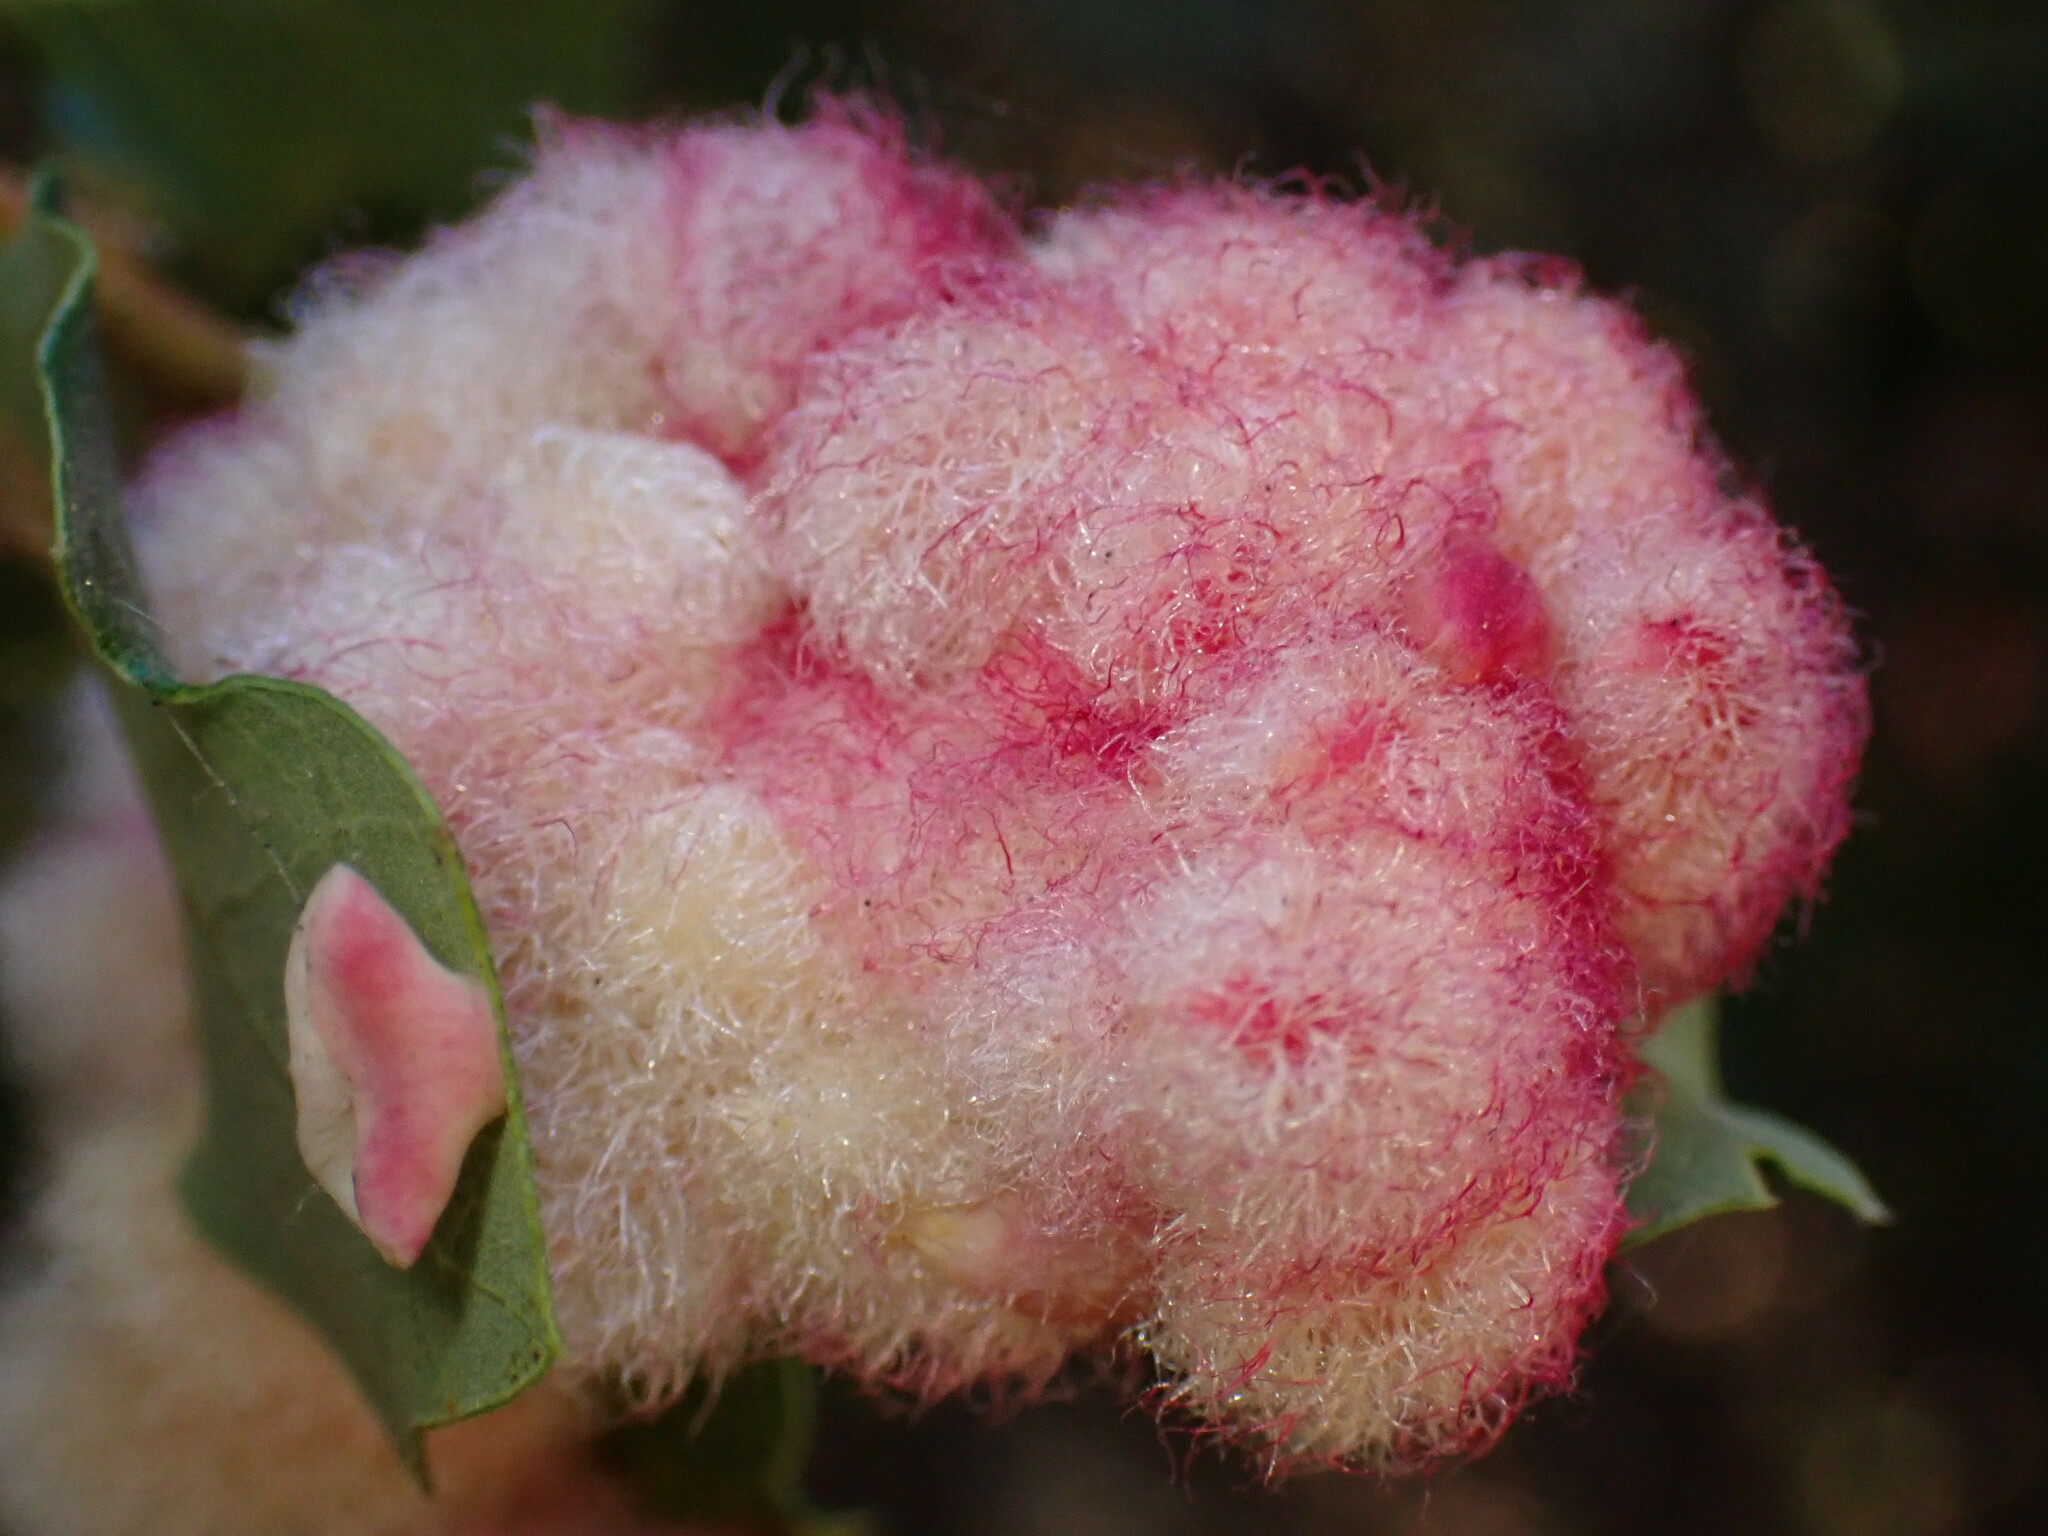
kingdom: Animalia
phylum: Arthropoda
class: Insecta
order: Hymenoptera
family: Cynipidae
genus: Andricus
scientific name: Andricus
